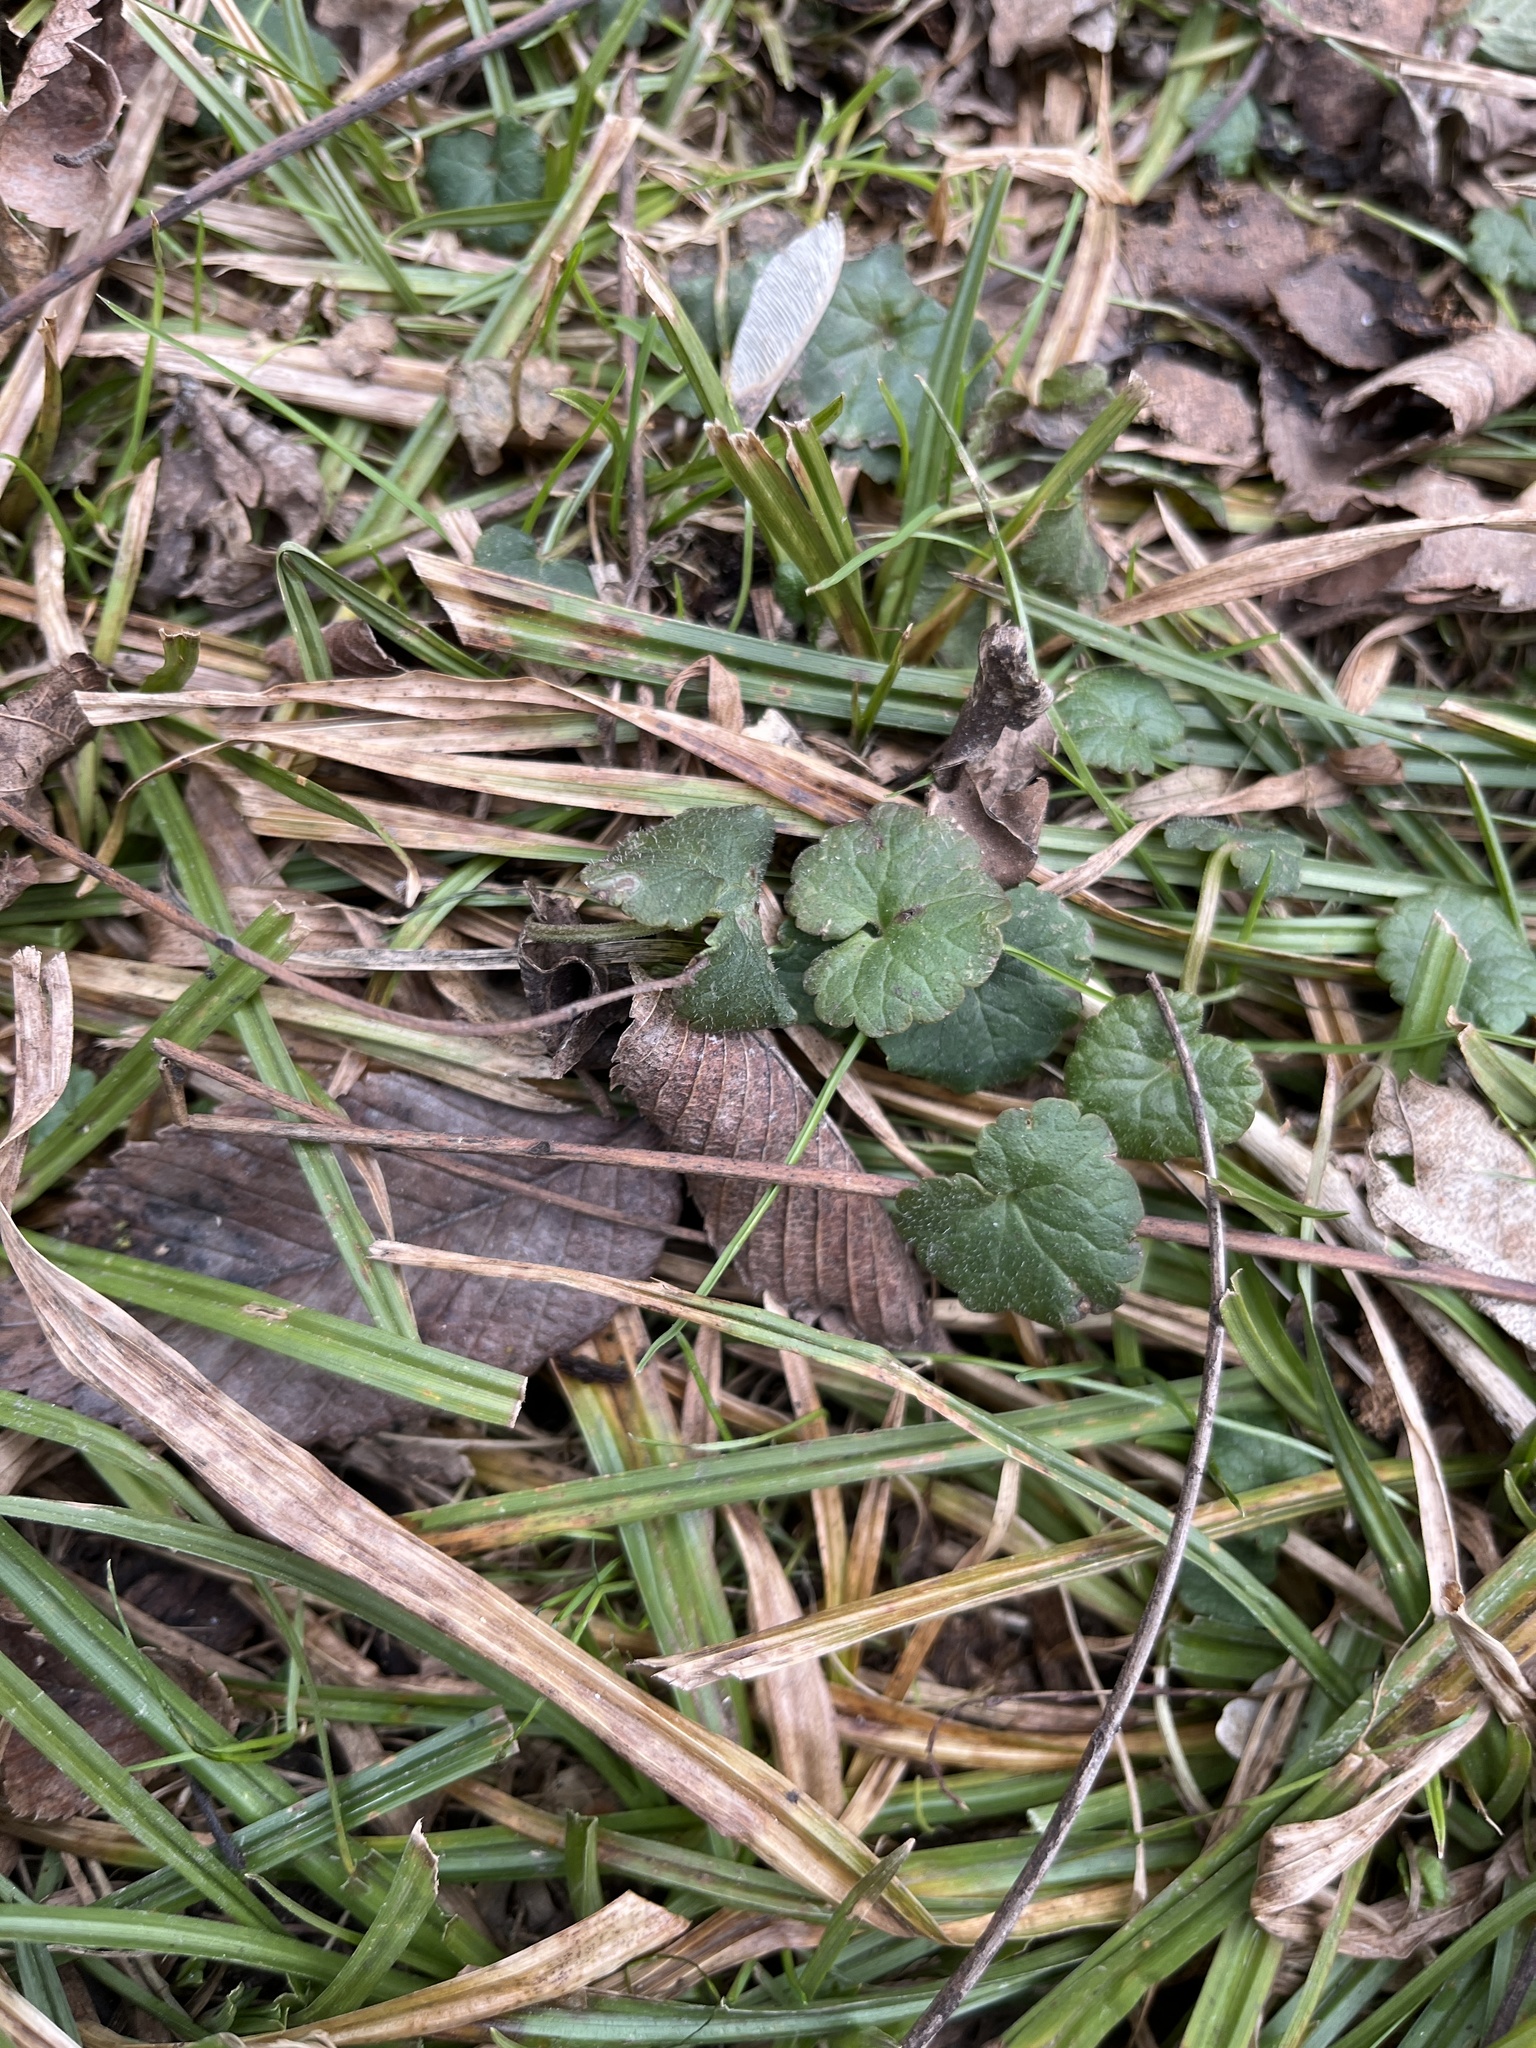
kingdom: Plantae
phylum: Tracheophyta
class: Magnoliopsida
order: Lamiales
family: Lamiaceae
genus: Glechoma
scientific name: Glechoma hederacea
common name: Ground ivy
